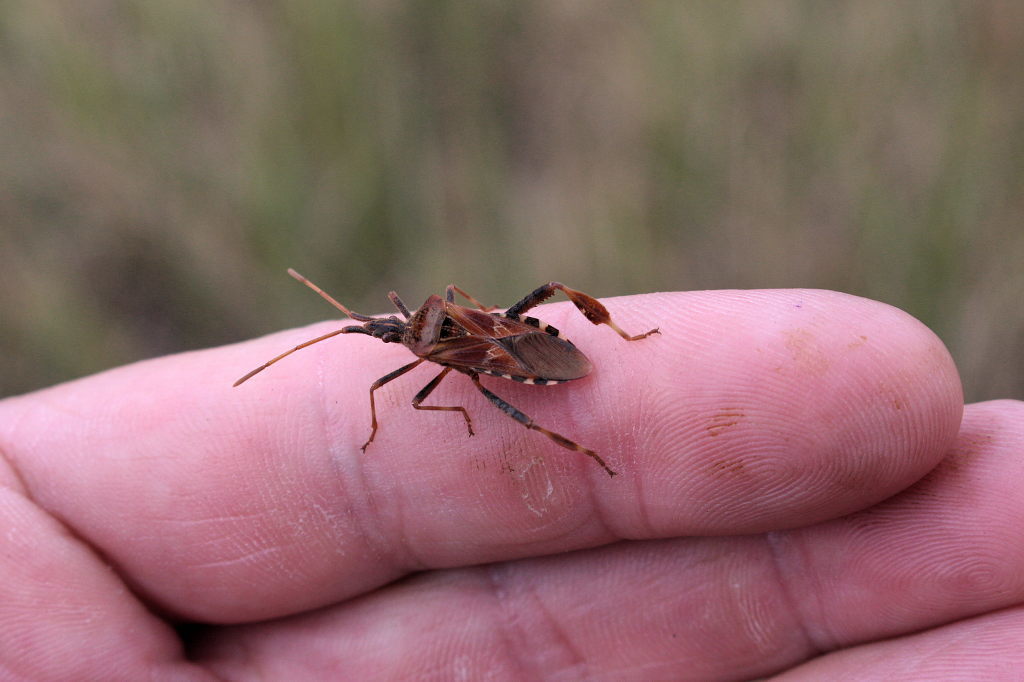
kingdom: Animalia
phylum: Arthropoda
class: Insecta
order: Hemiptera
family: Coreidae
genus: Leptoglossus
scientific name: Leptoglossus occidentalis
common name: Western conifer-seed bug
